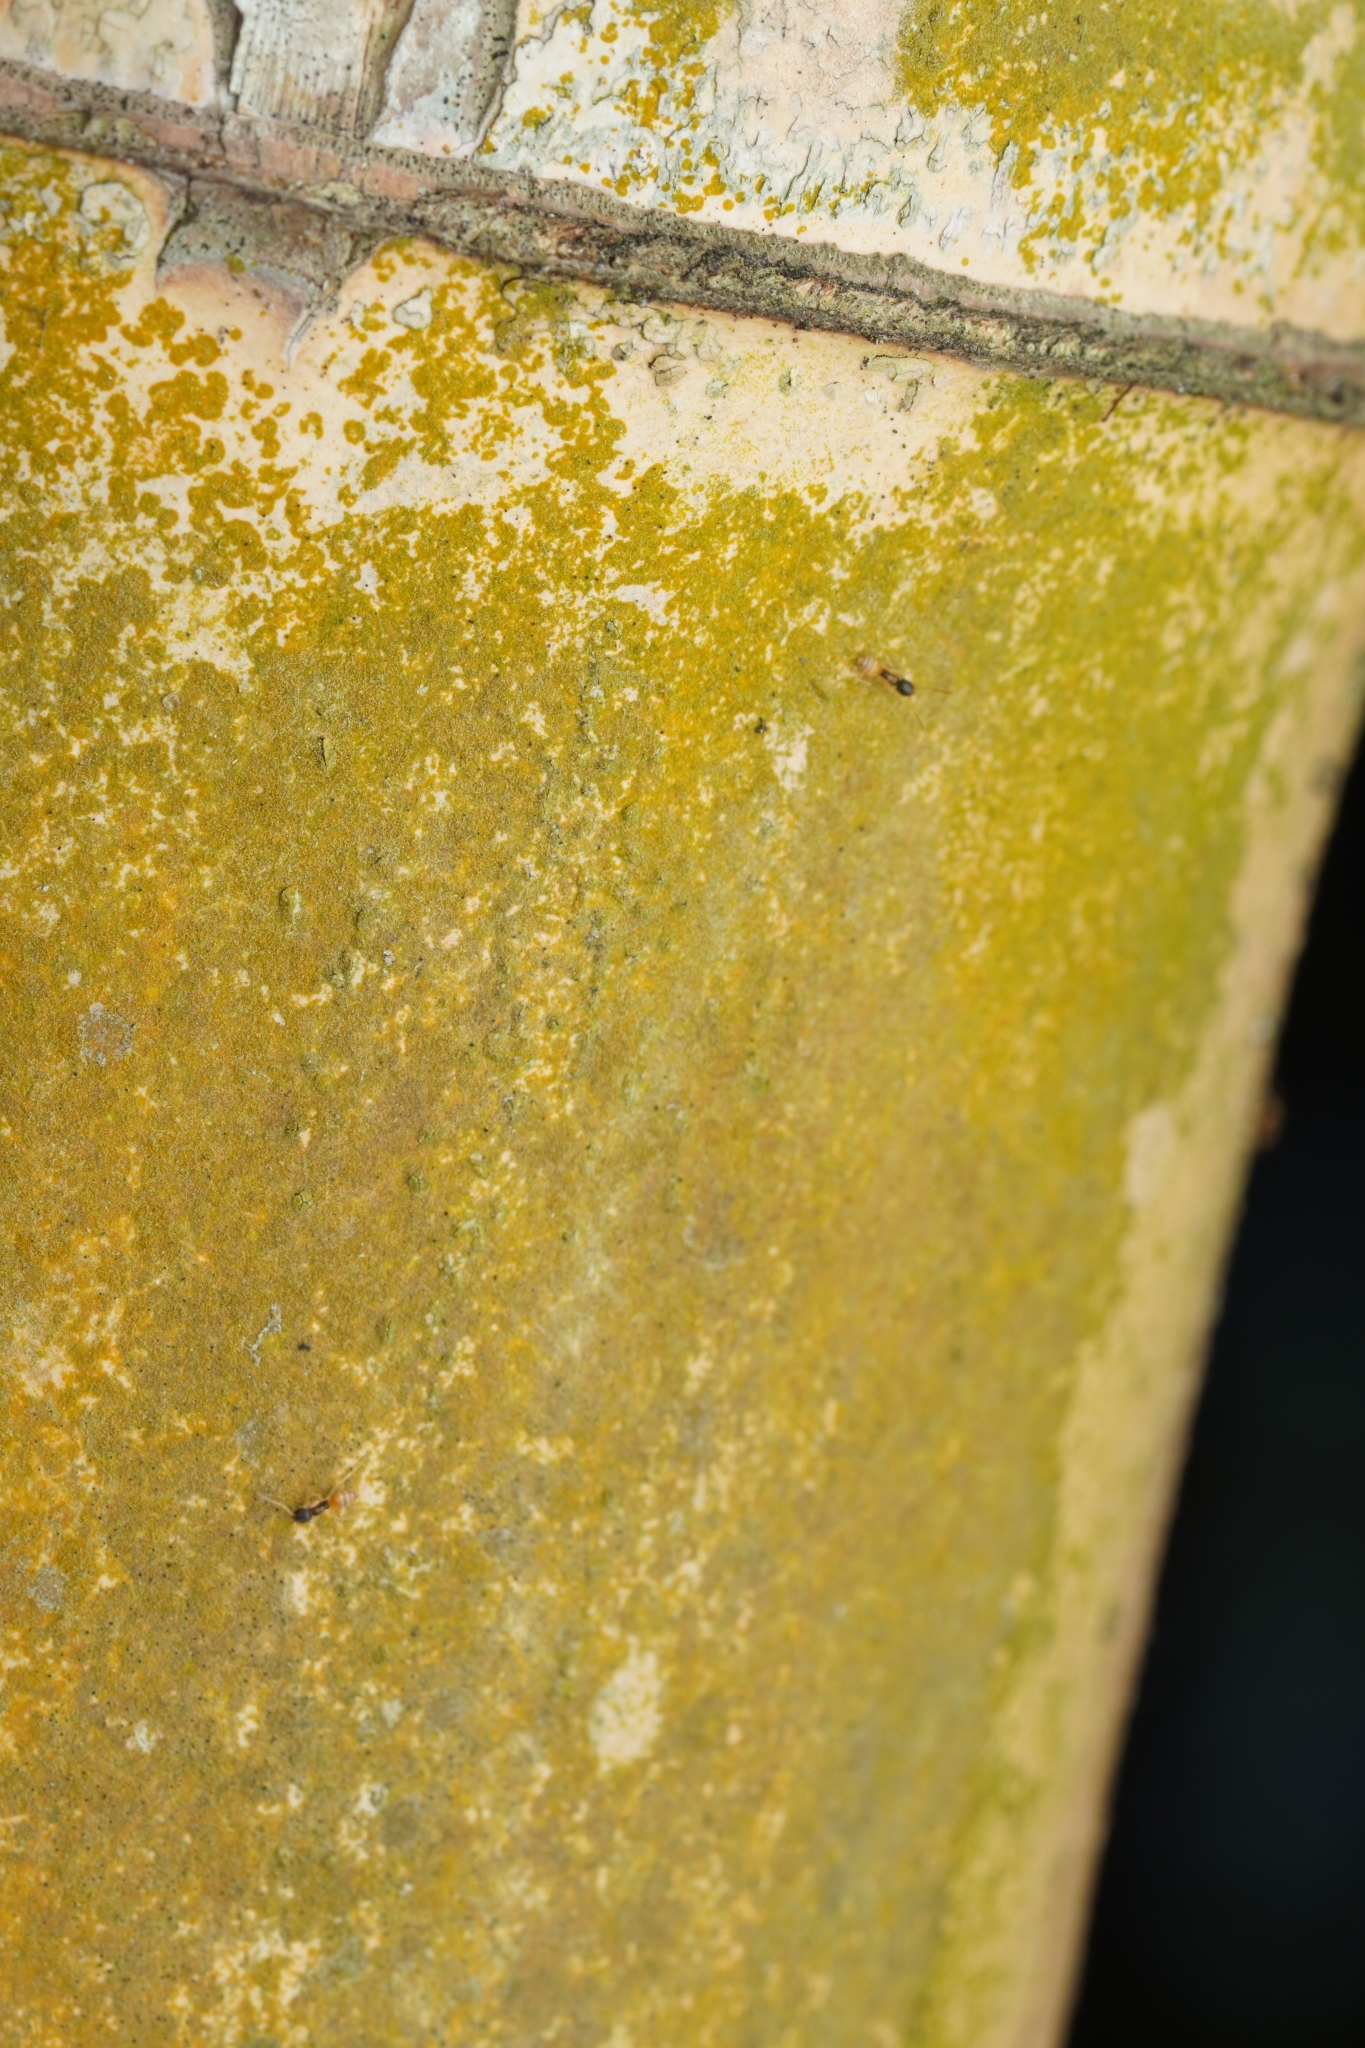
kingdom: Animalia
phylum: Arthropoda
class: Insecta
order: Hymenoptera
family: Formicidae
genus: Tapinoma
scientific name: Tapinoma melanocephalum
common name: Ghost ant
